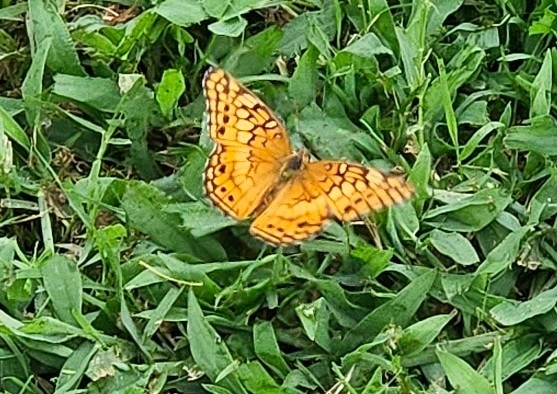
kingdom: Animalia
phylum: Arthropoda
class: Insecta
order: Lepidoptera
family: Nymphalidae
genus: Euptoieta
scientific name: Euptoieta claudia
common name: Variegated fritillary
